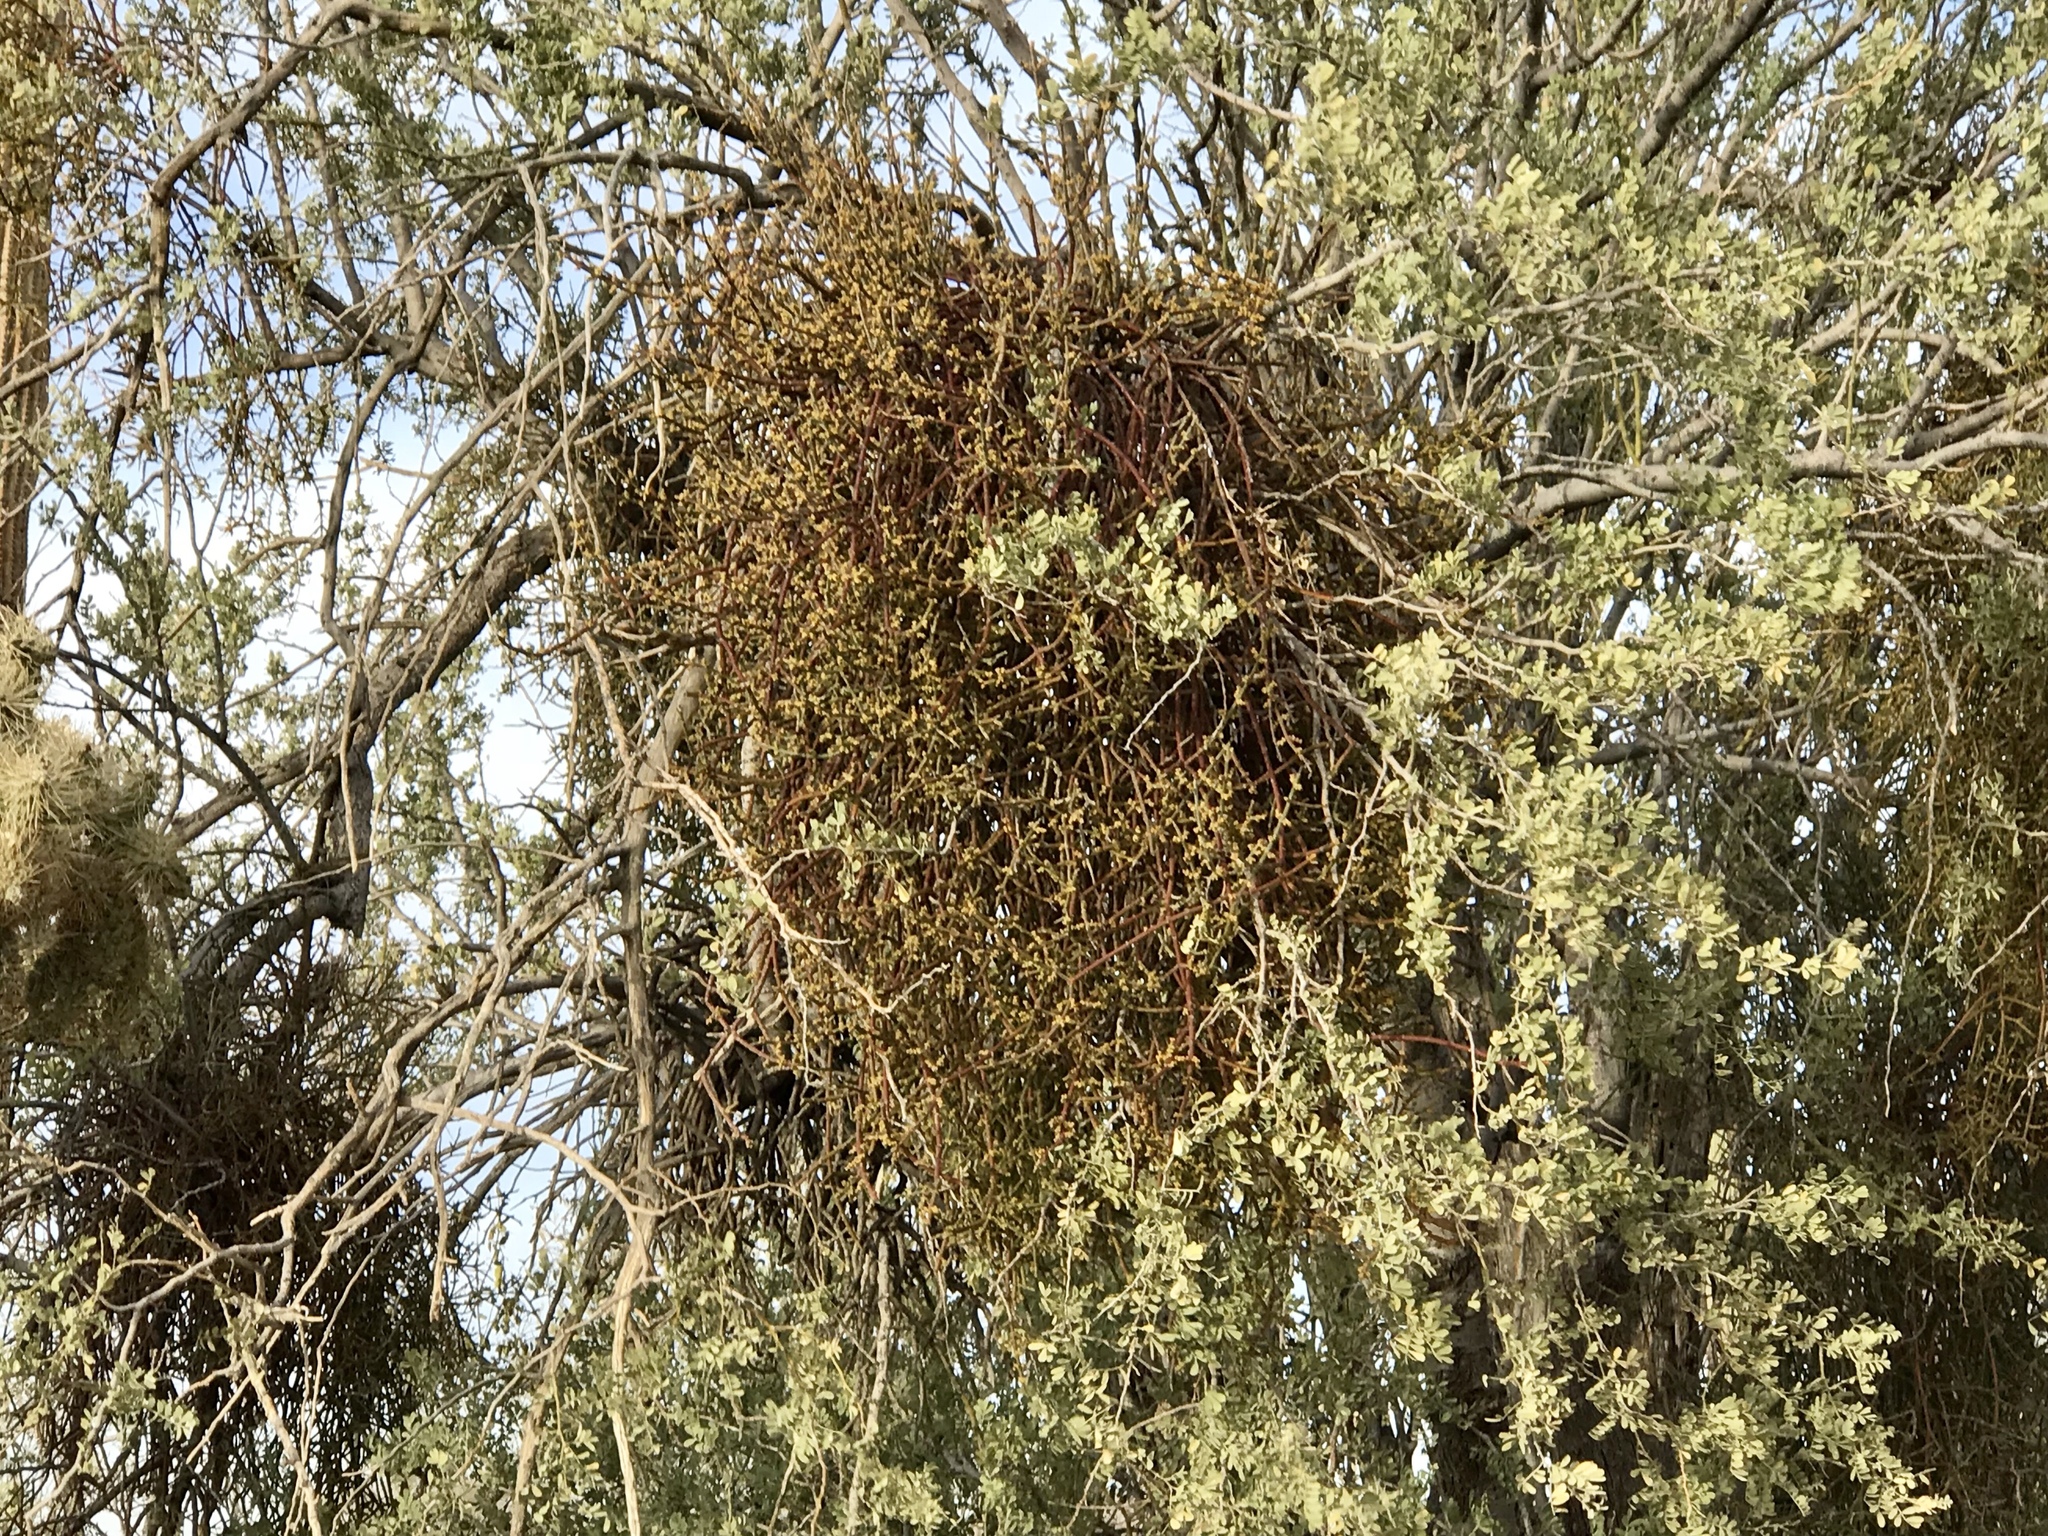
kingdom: Plantae
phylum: Tracheophyta
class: Magnoliopsida
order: Santalales
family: Viscaceae
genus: Phoradendron
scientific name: Phoradendron californicum
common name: Acacia mistletoe
